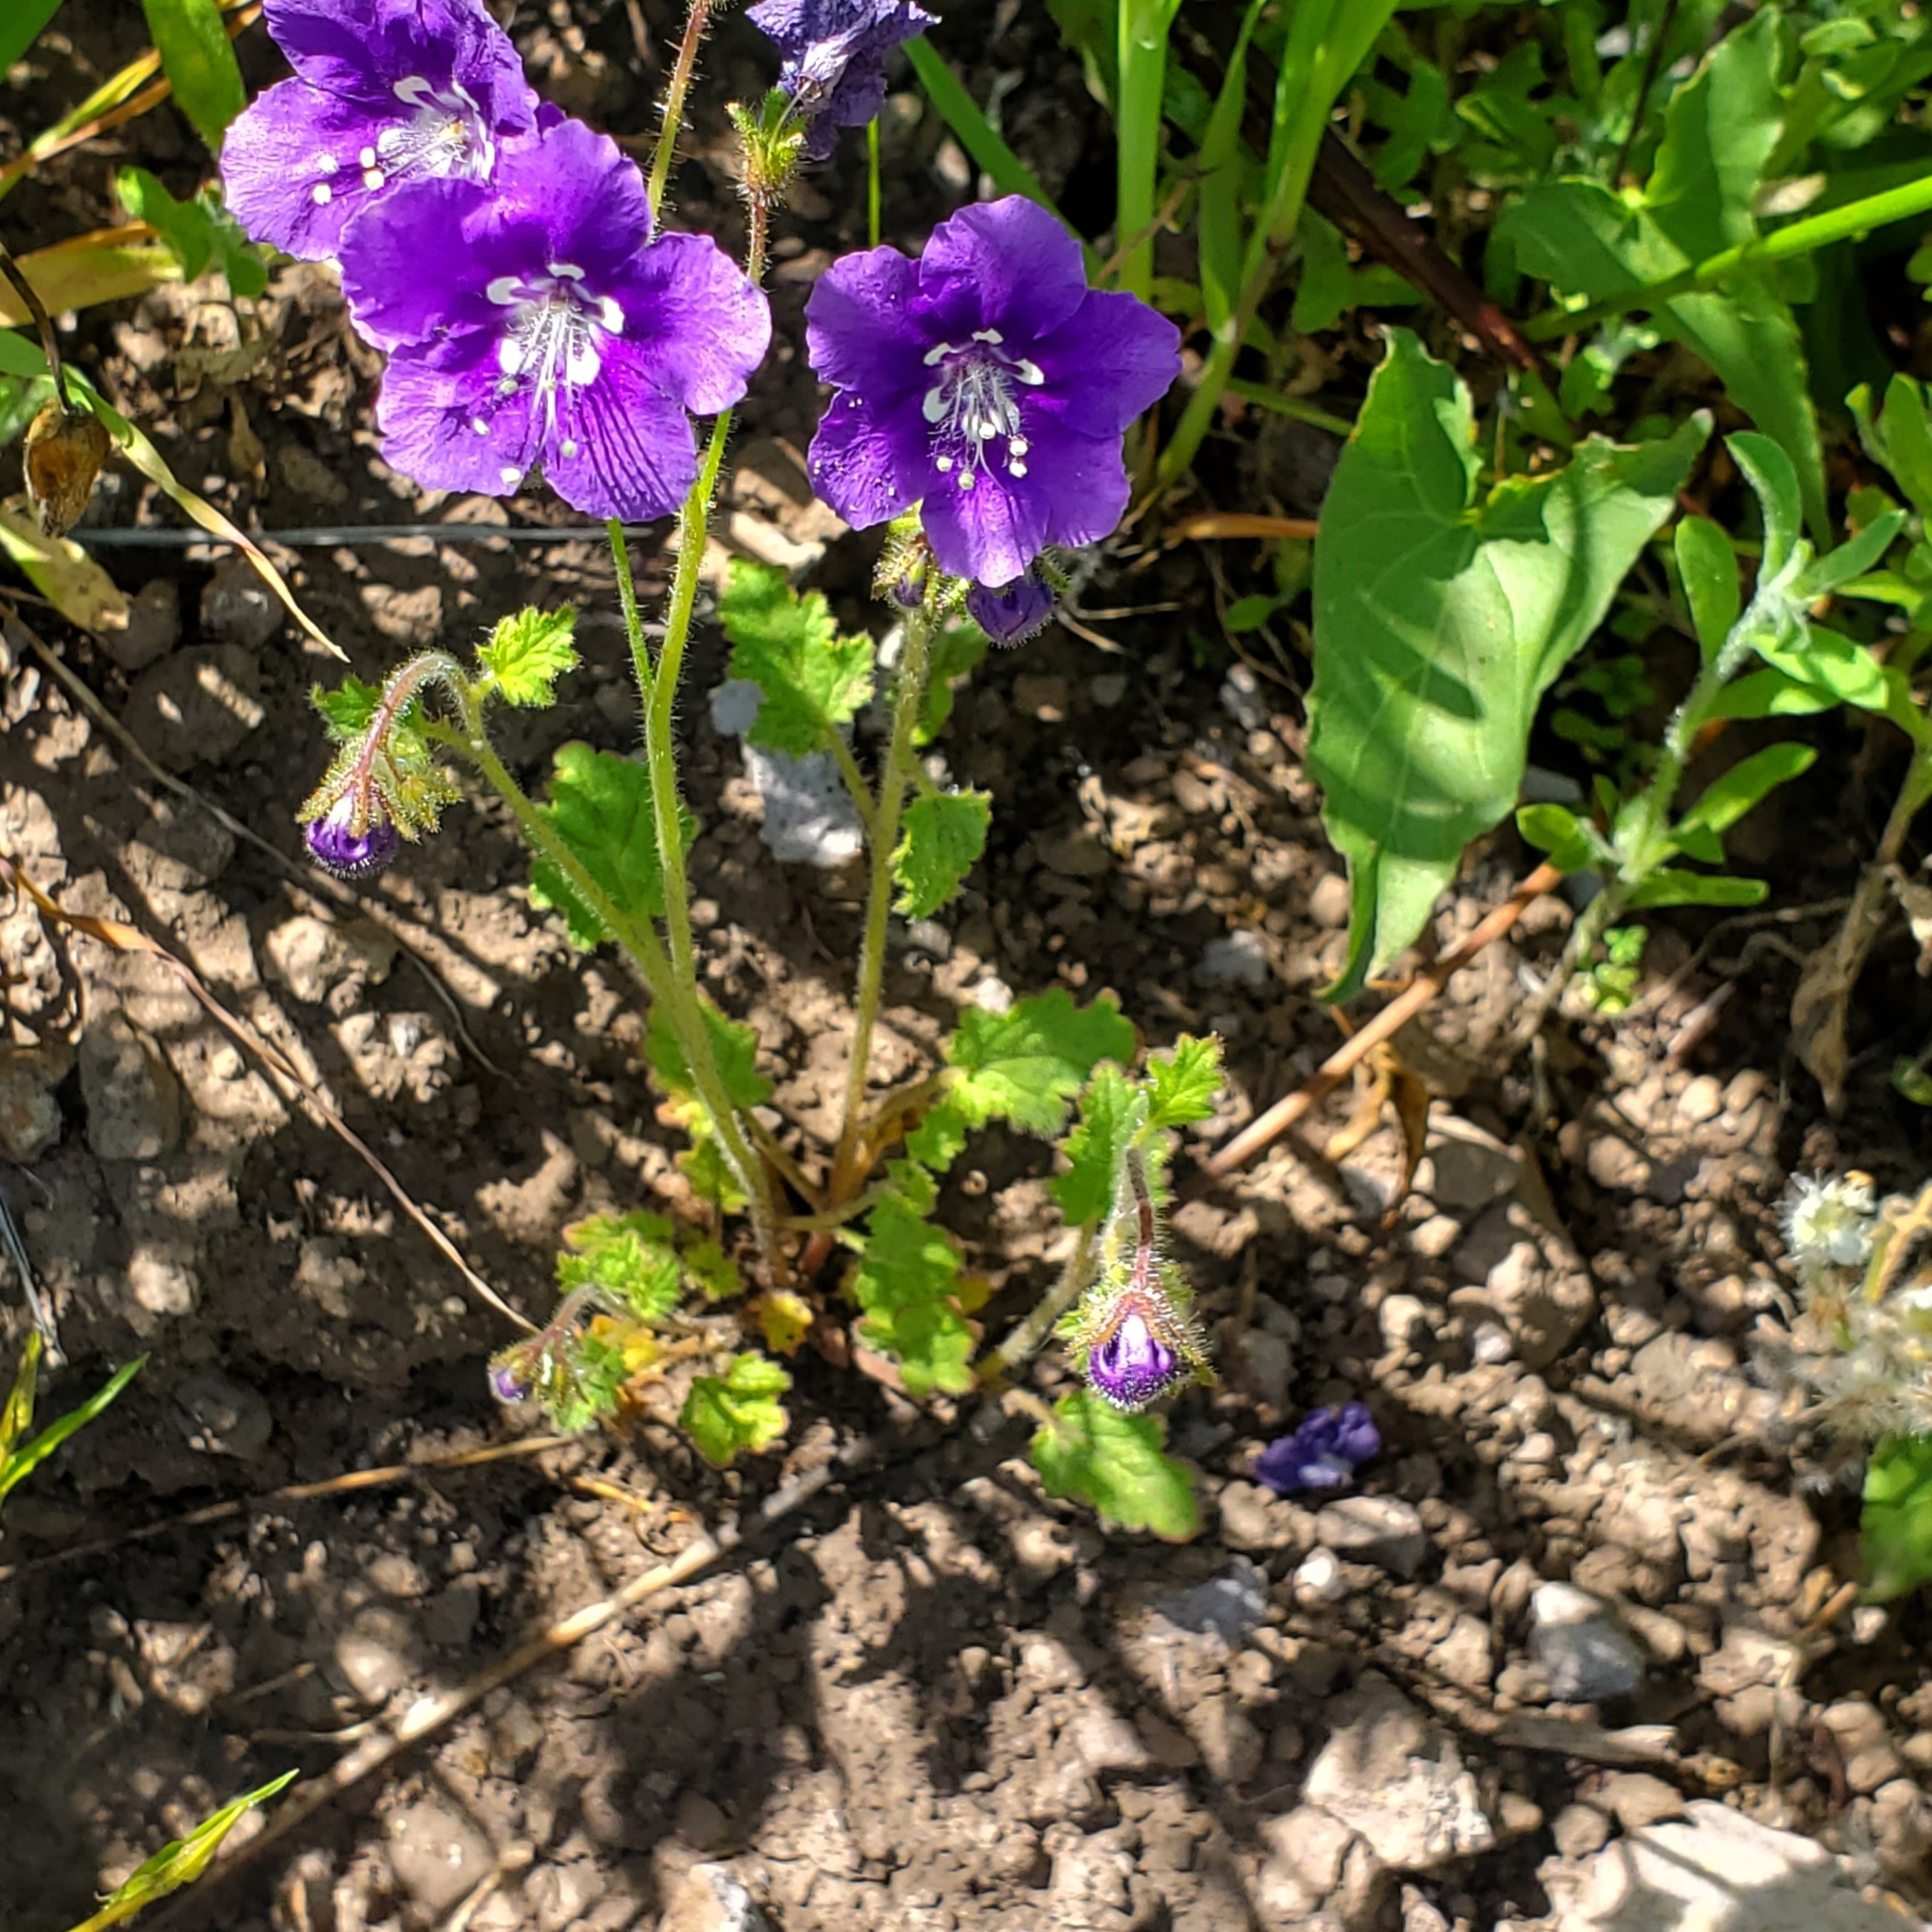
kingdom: Plantae
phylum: Tracheophyta
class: Magnoliopsida
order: Boraginales
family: Hydrophyllaceae
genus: Phacelia
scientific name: Phacelia parryi
